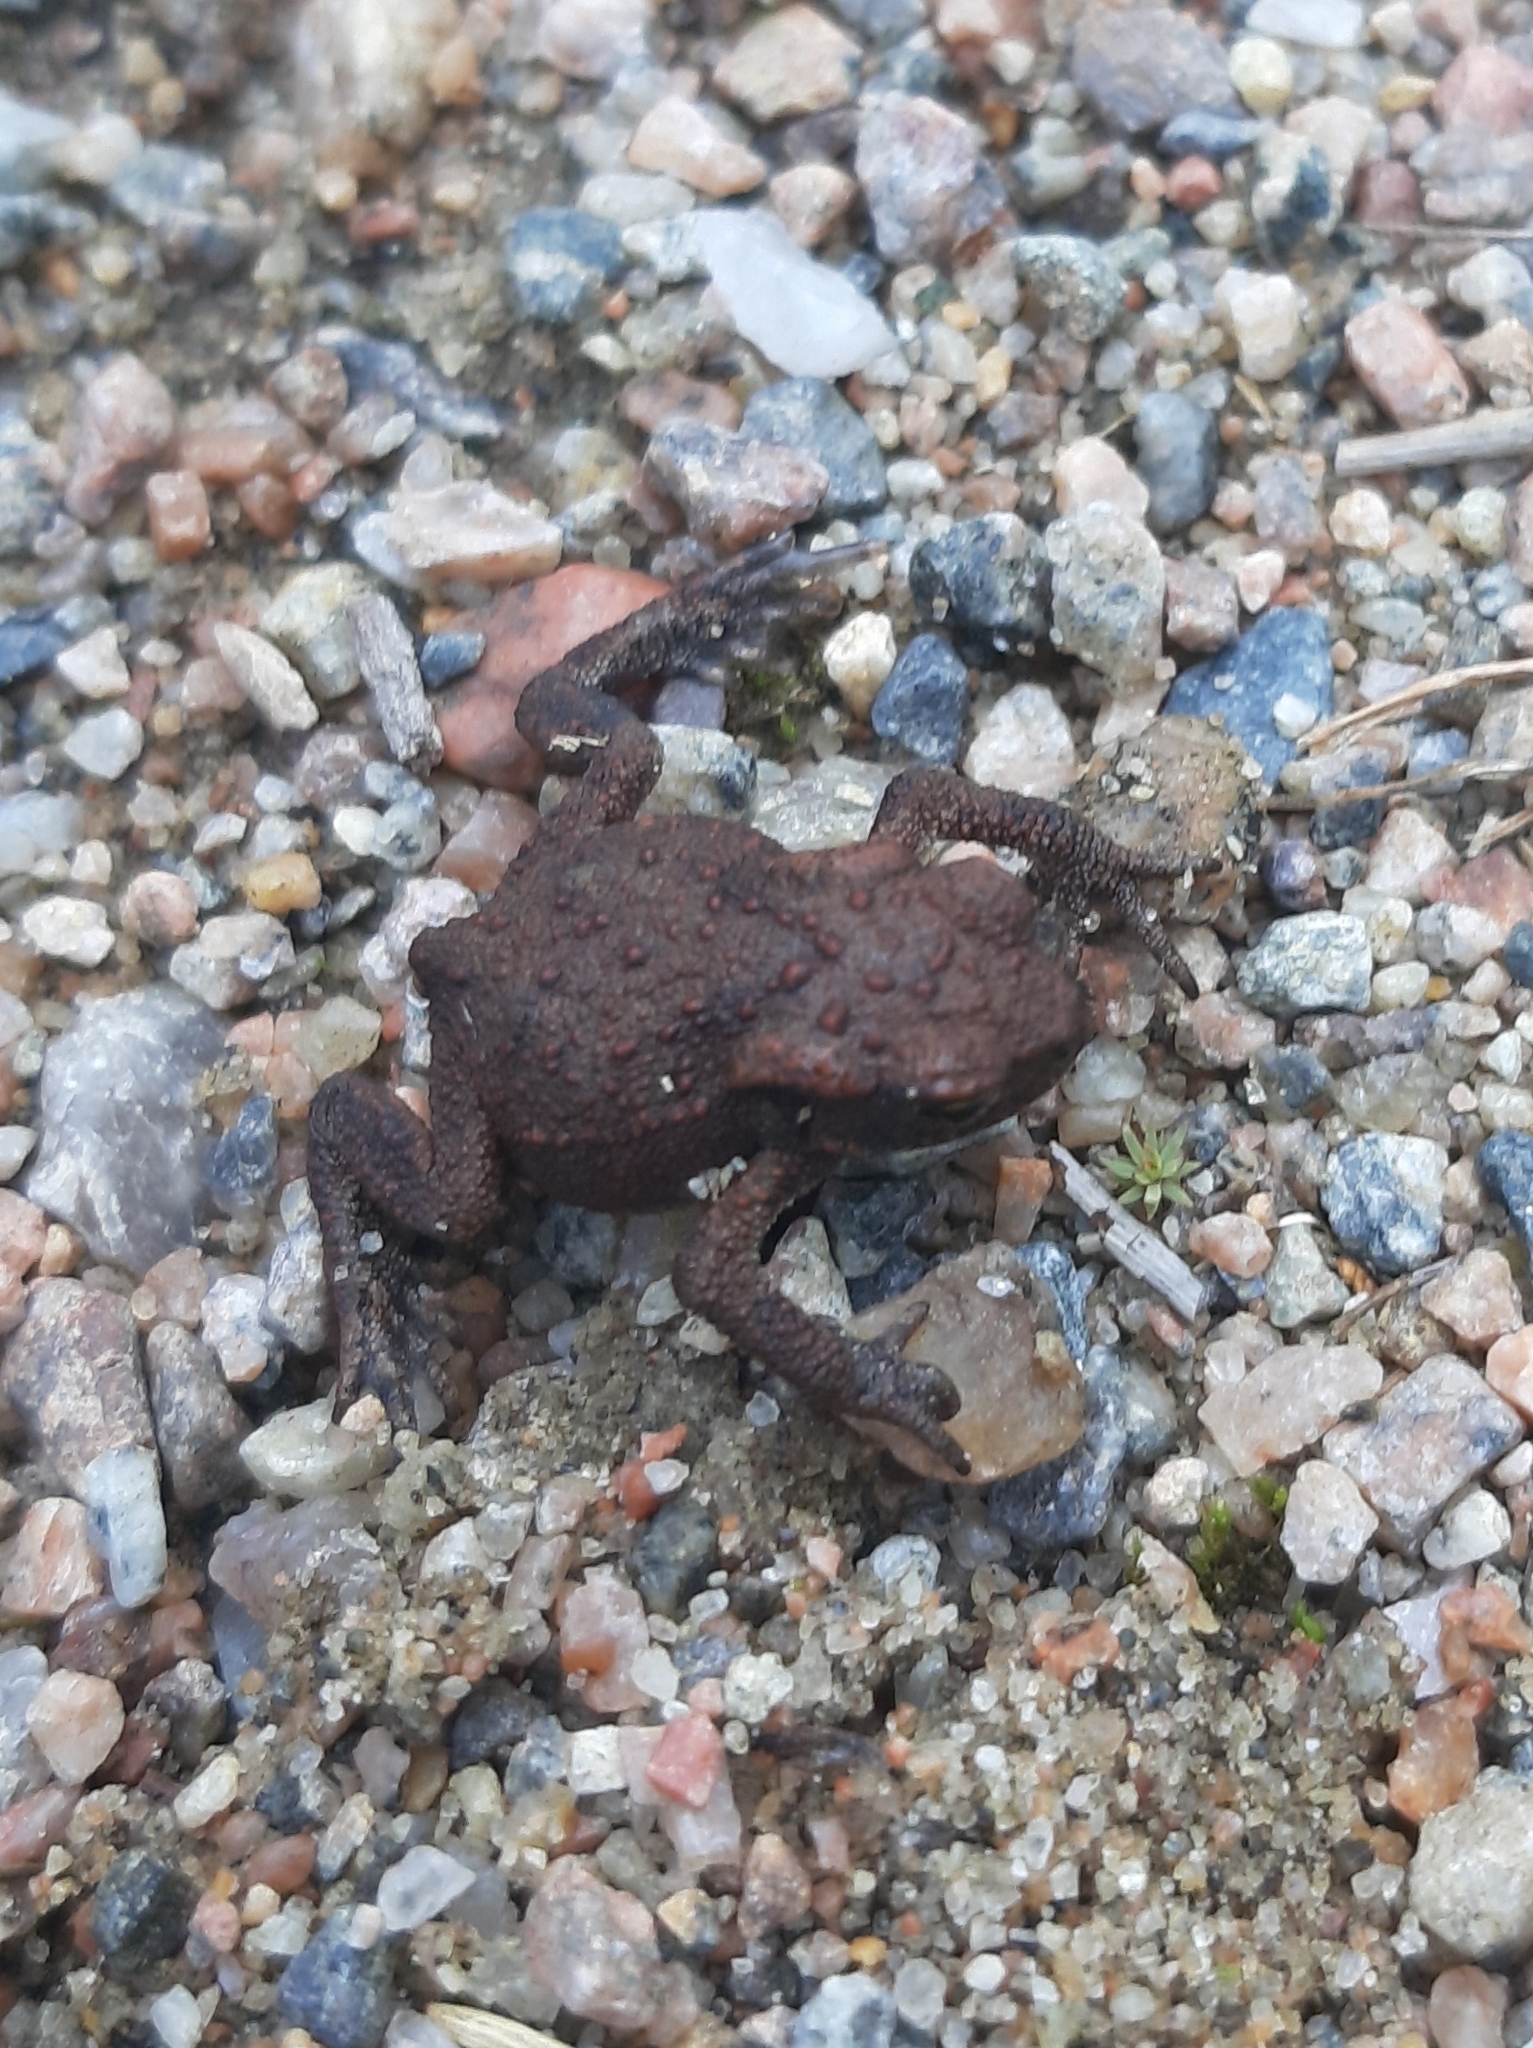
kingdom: Animalia
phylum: Chordata
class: Amphibia
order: Anura
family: Bufonidae
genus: Bufo
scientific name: Bufo bufo
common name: Common toad
